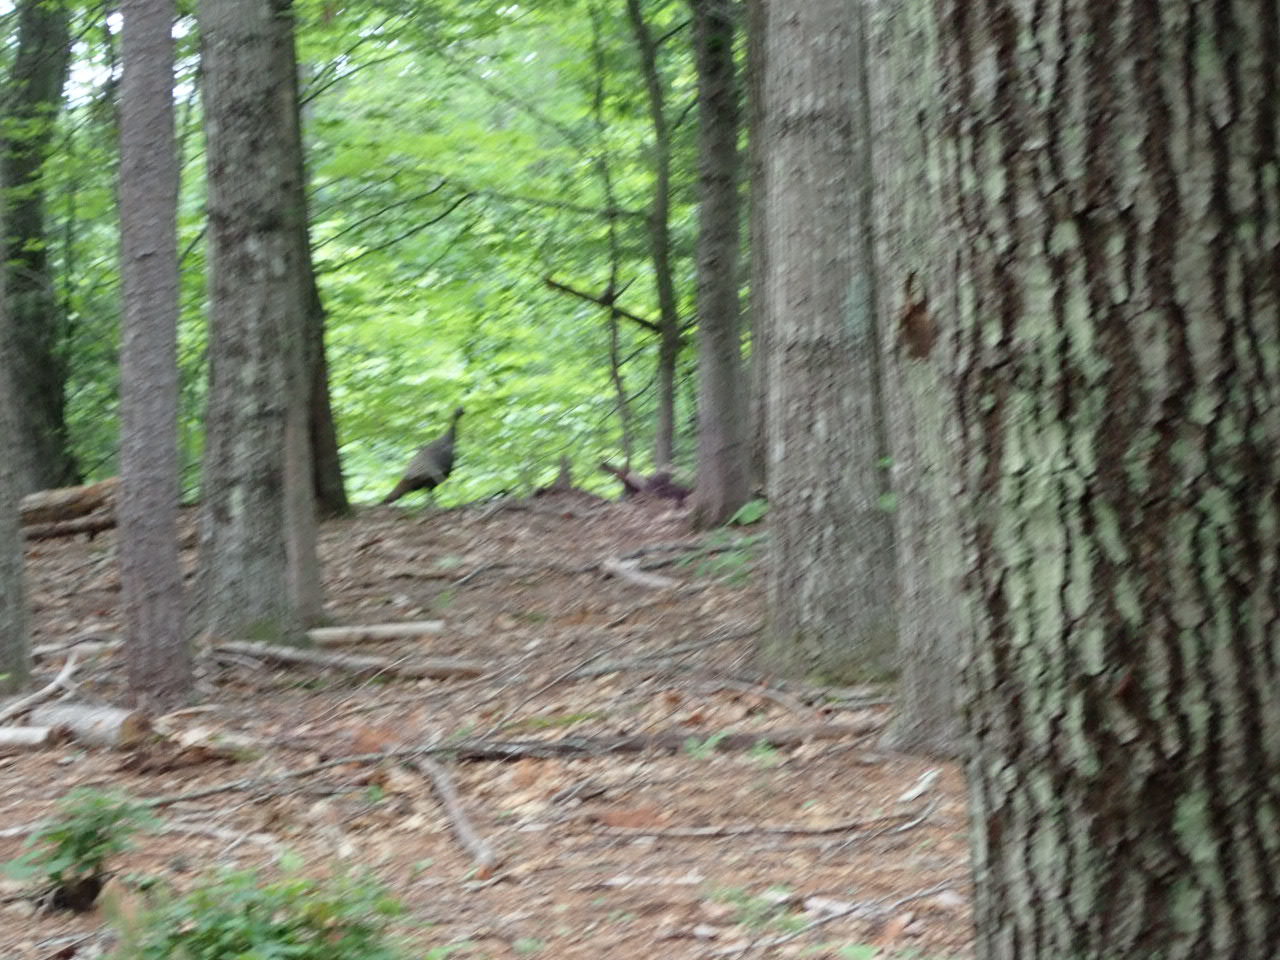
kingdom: Animalia
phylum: Chordata
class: Aves
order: Galliformes
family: Phasianidae
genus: Meleagris
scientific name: Meleagris gallopavo
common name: Wild turkey
